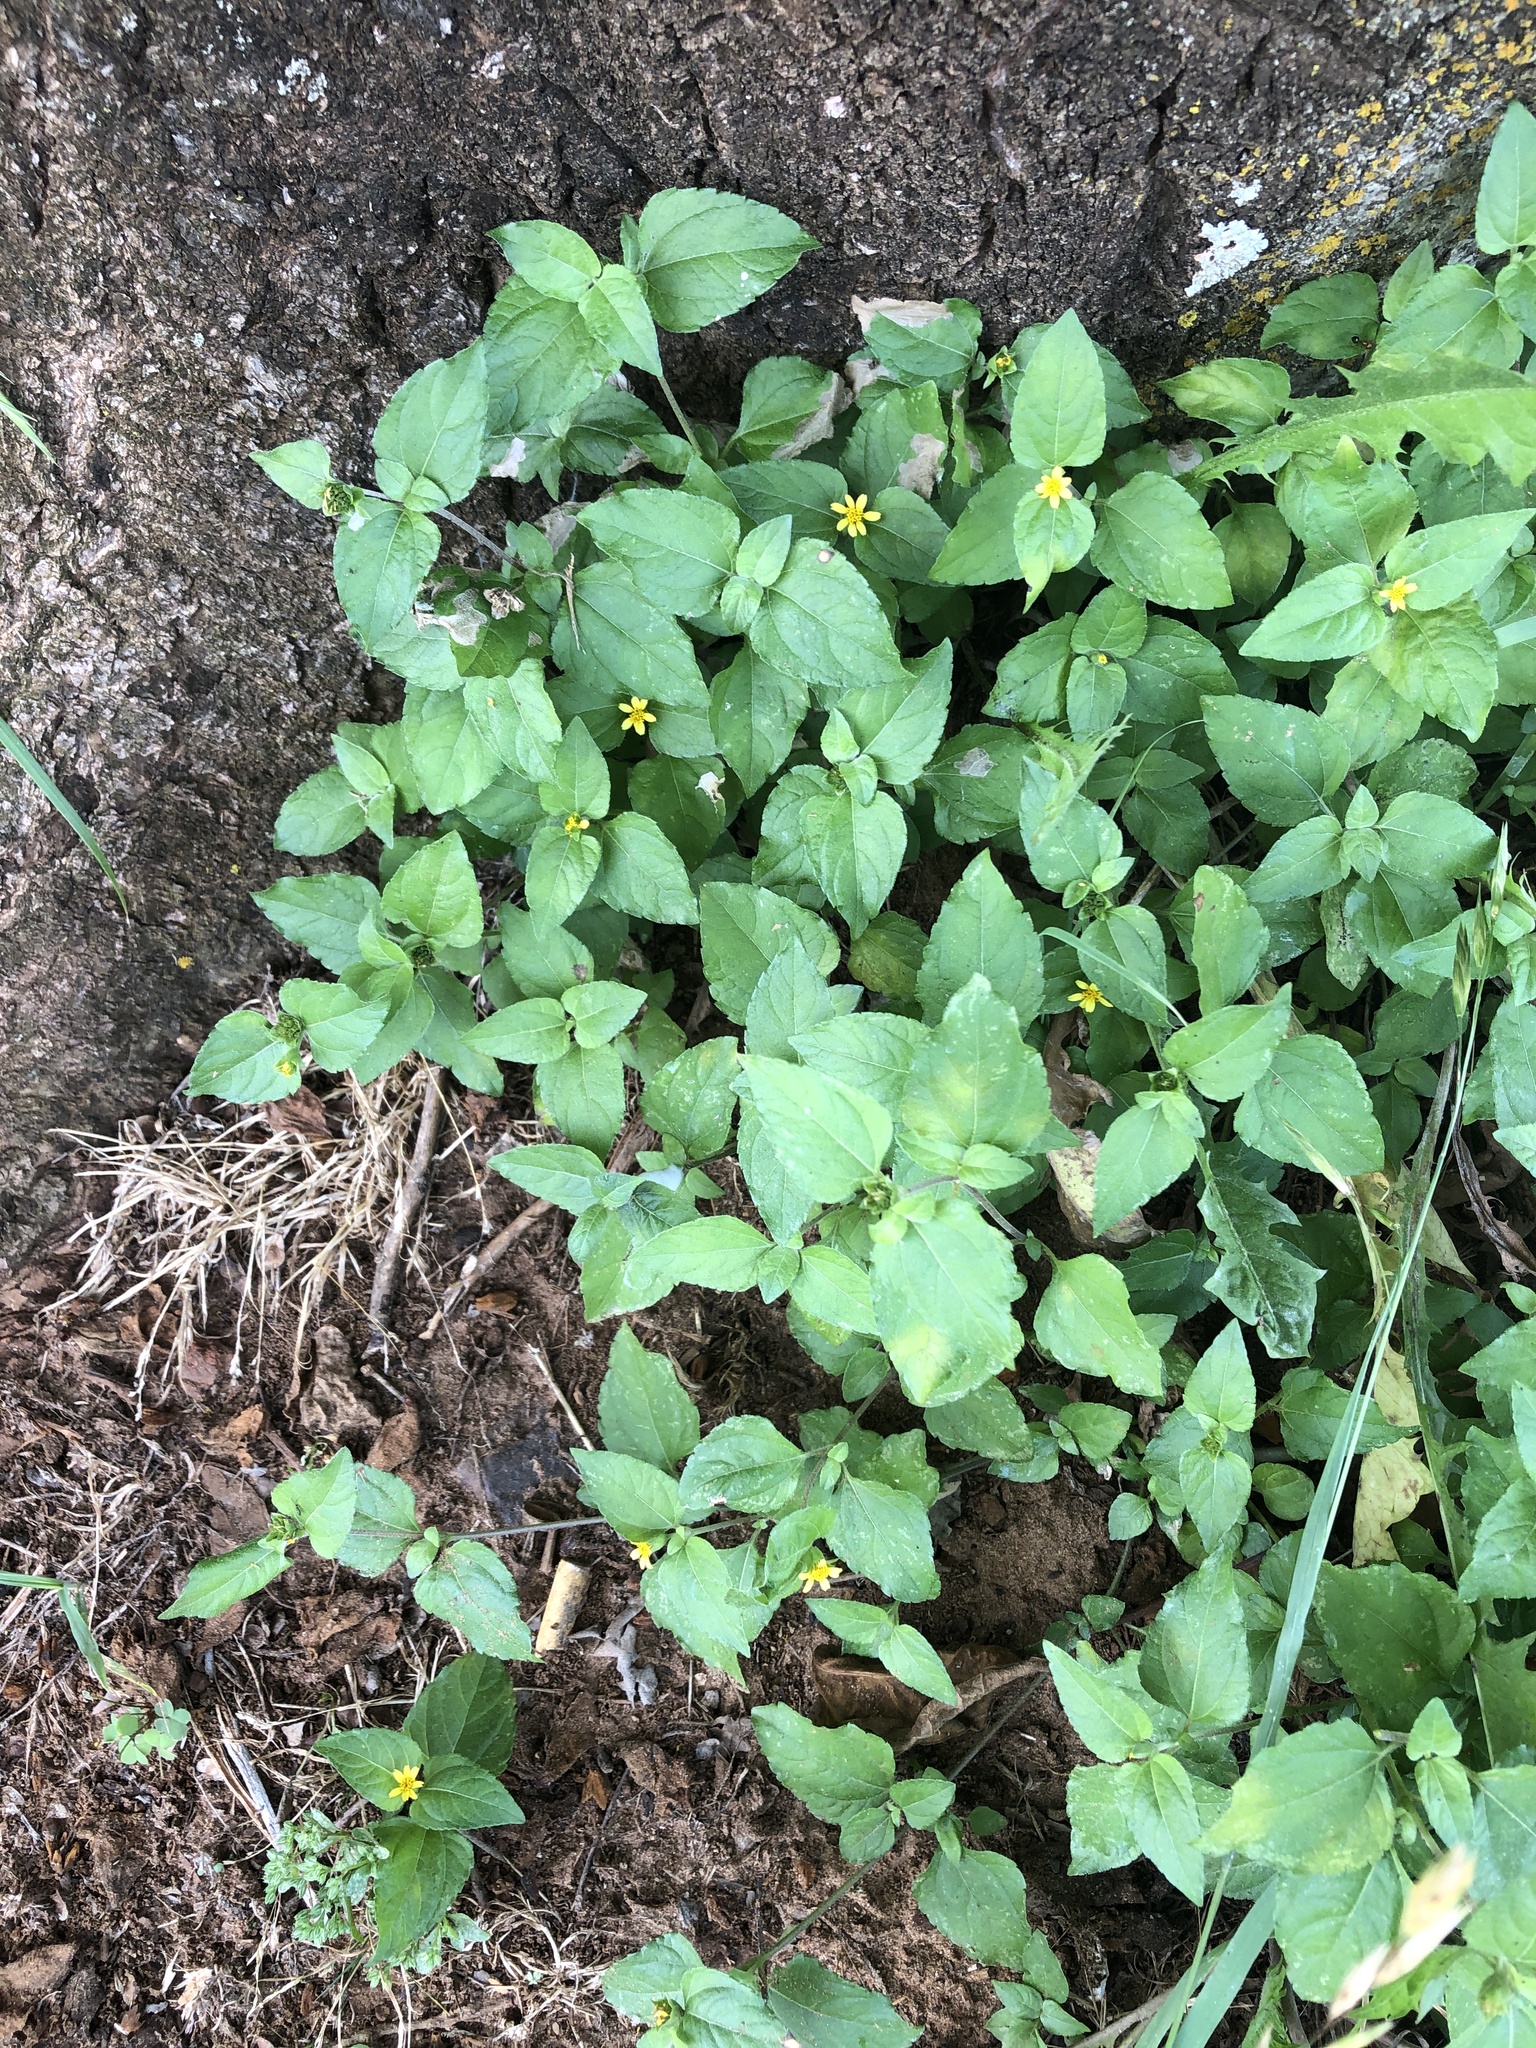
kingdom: Plantae
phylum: Tracheophyta
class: Magnoliopsida
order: Asterales
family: Asteraceae
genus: Calyptocarpus
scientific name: Calyptocarpus vialis
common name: Straggler daisy
